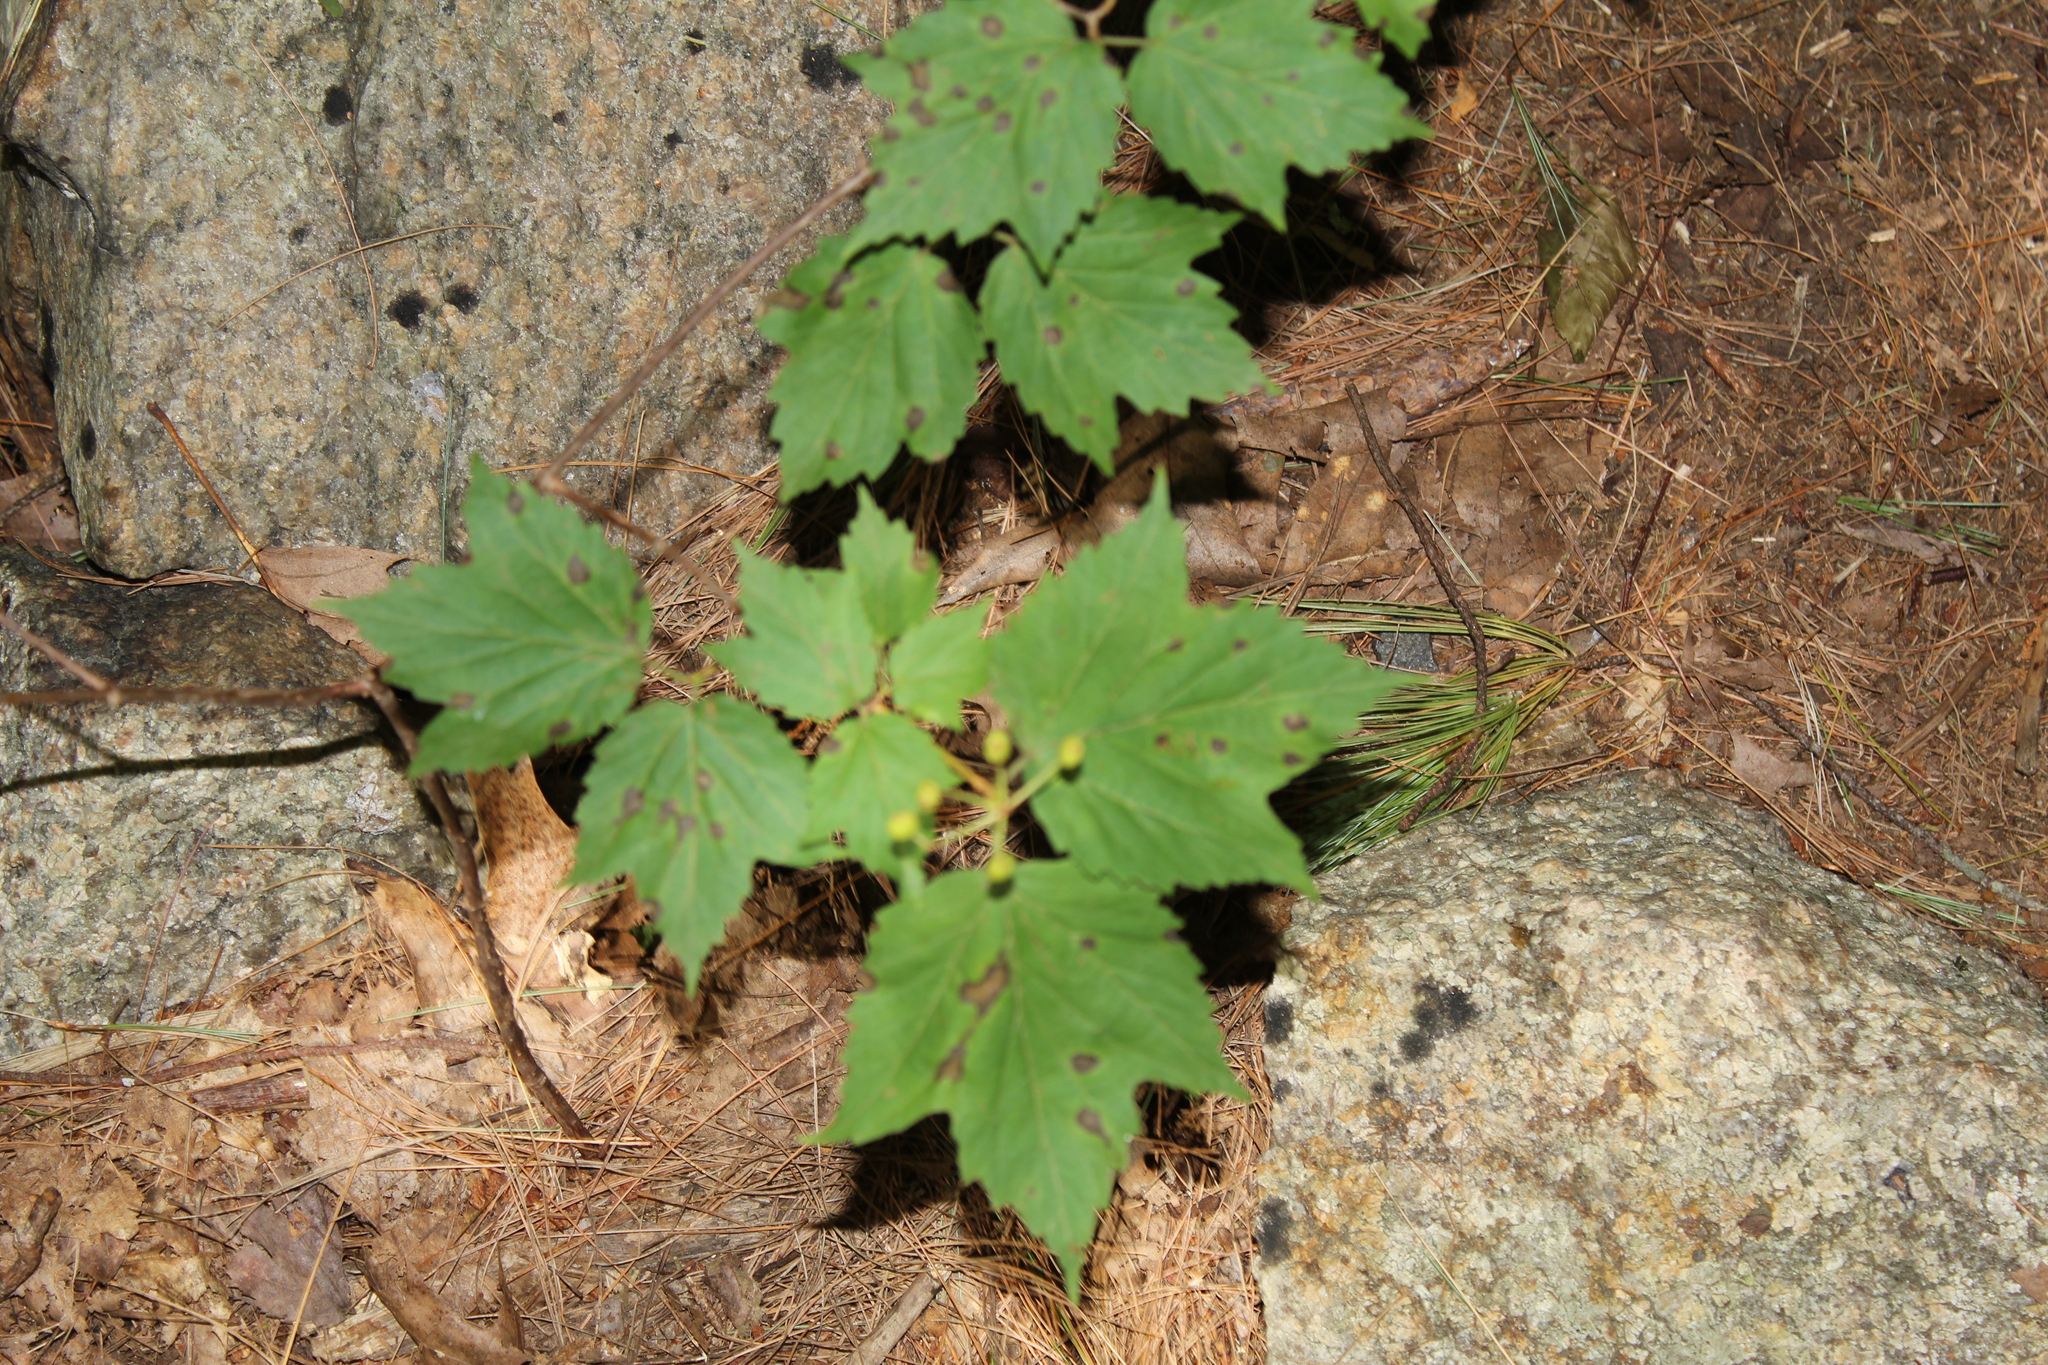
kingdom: Plantae
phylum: Tracheophyta
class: Magnoliopsida
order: Dipsacales
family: Viburnaceae
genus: Viburnum
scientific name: Viburnum acerifolium
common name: Dockmackie
